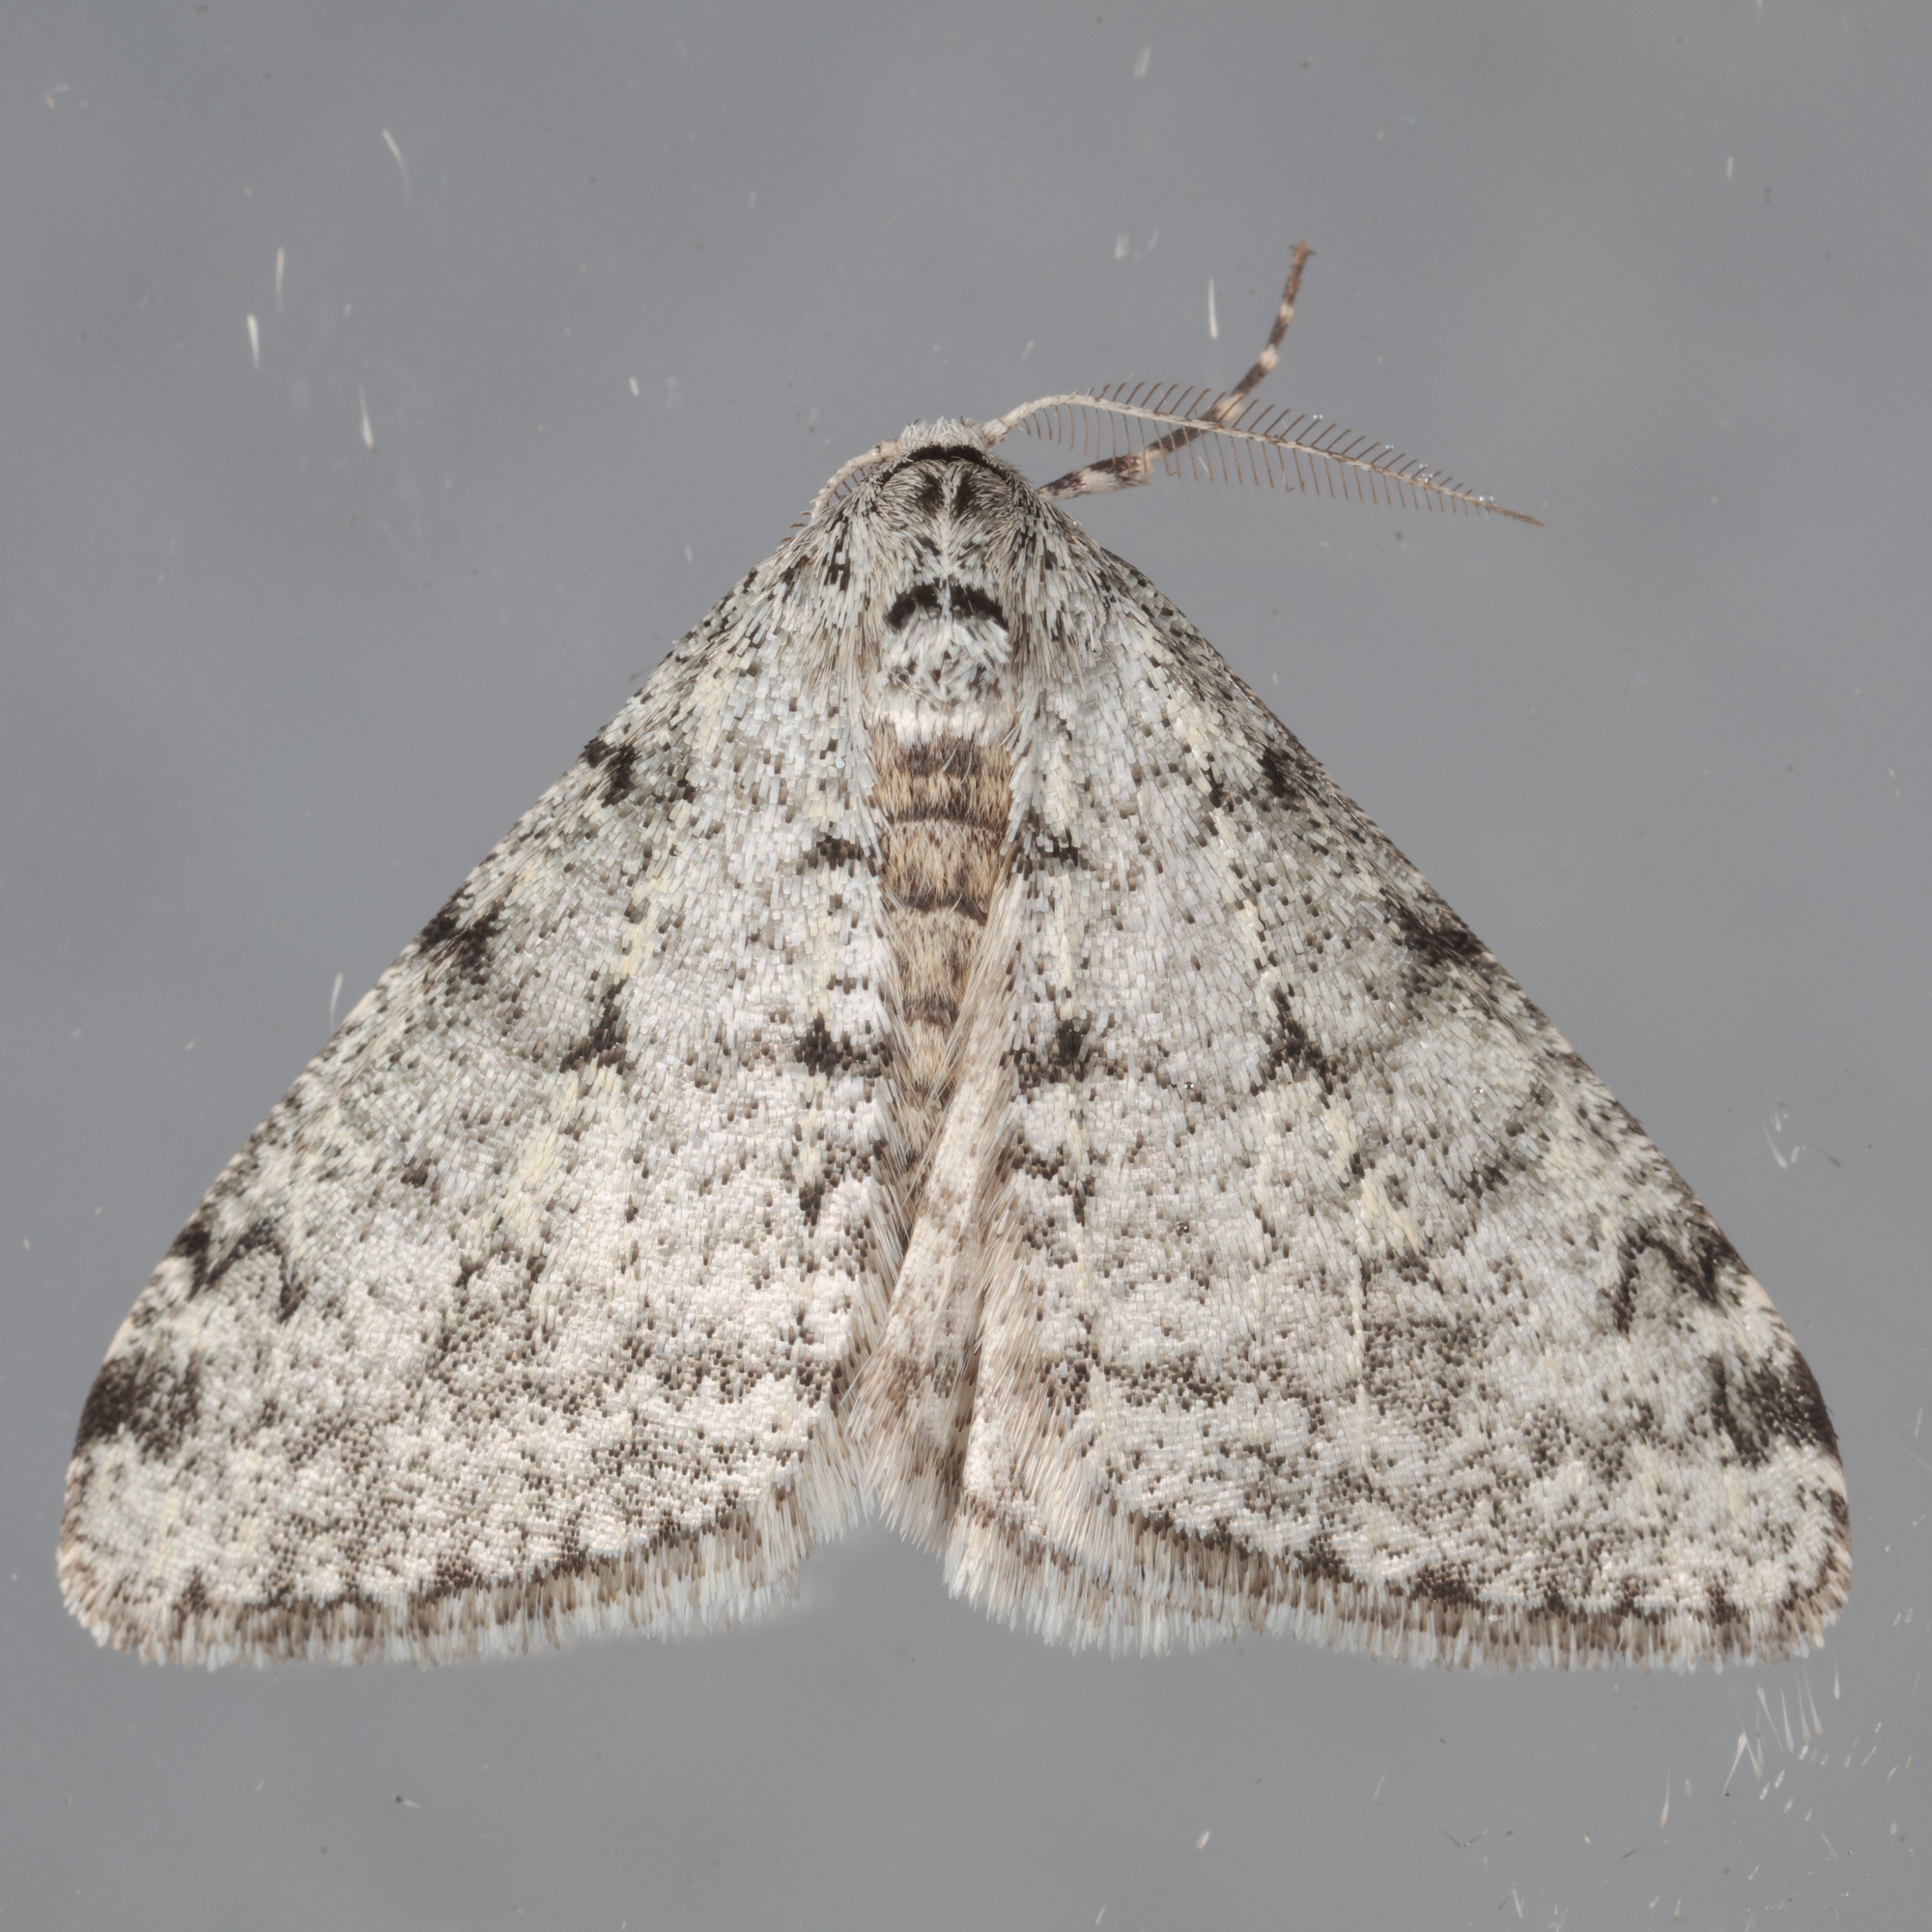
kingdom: Animalia
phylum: Arthropoda
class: Insecta
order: Lepidoptera
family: Geometridae
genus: Phigalia
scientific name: Phigalia strigataria
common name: Small phigalia
